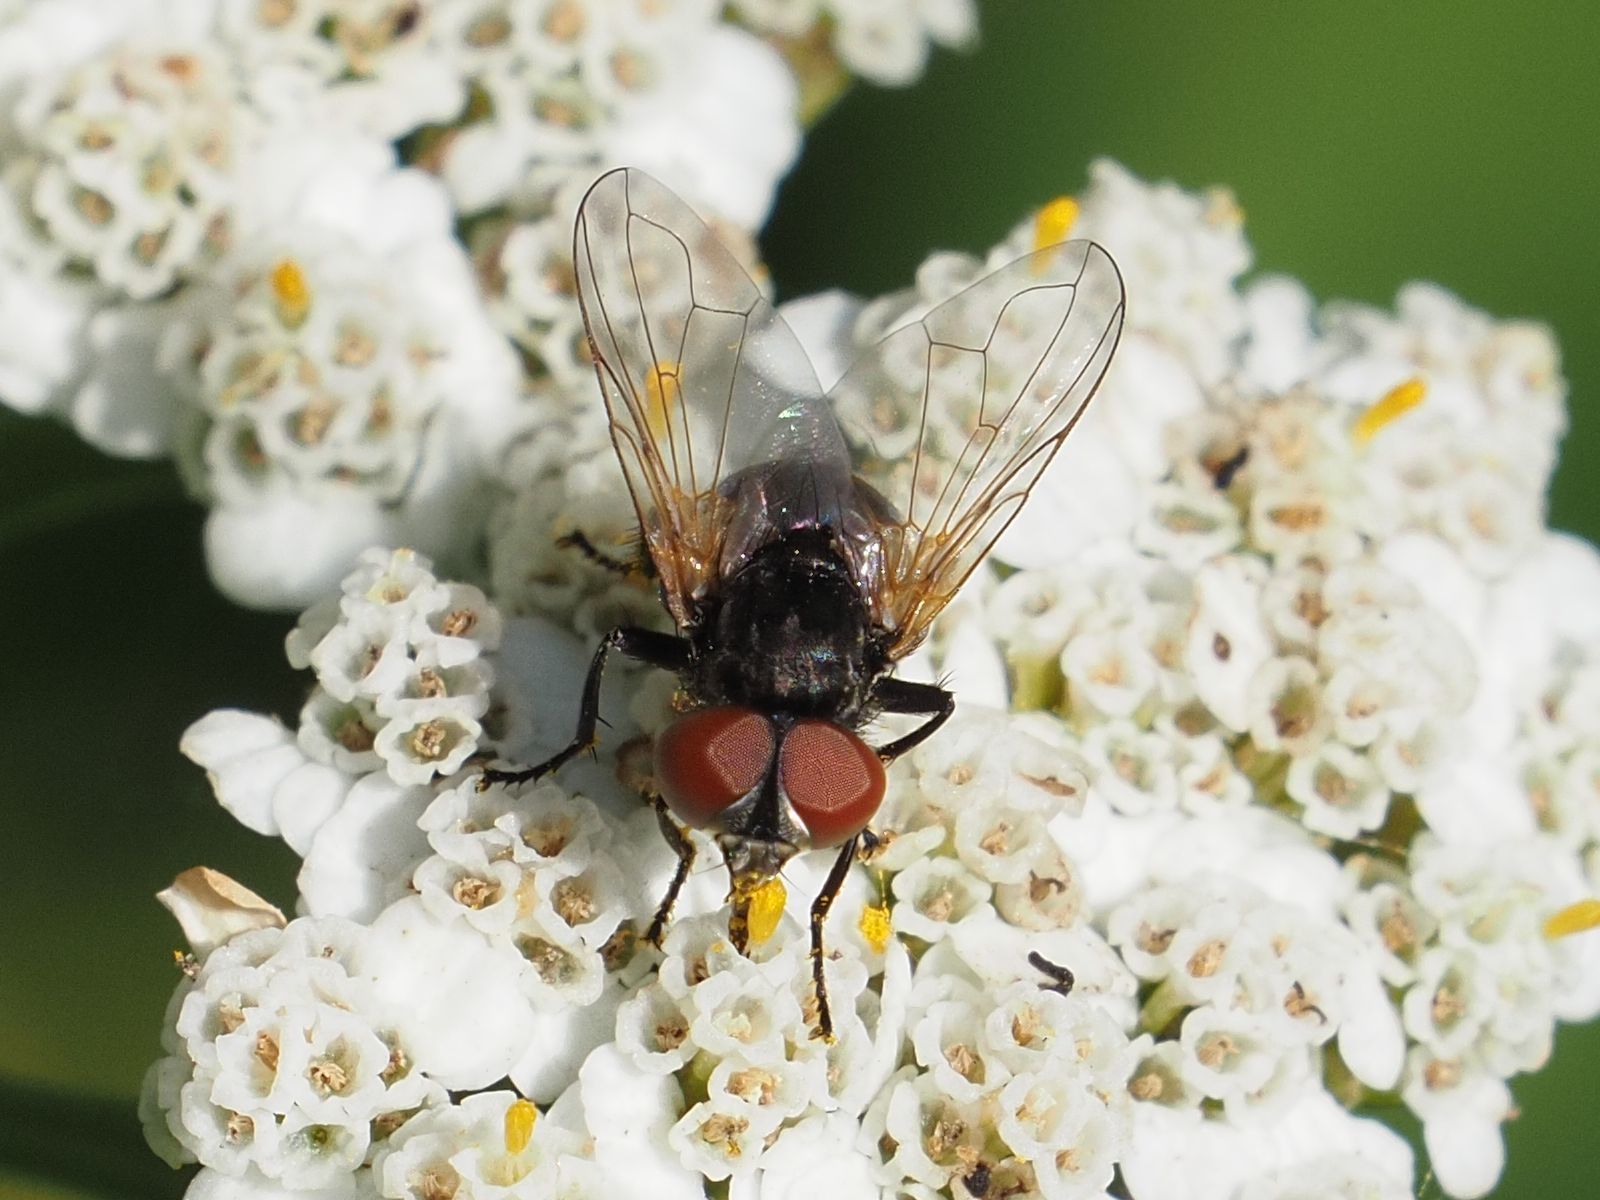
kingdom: Animalia
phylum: Arthropoda
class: Insecta
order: Diptera
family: Tachinidae
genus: Phasia
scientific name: Phasia obesa
